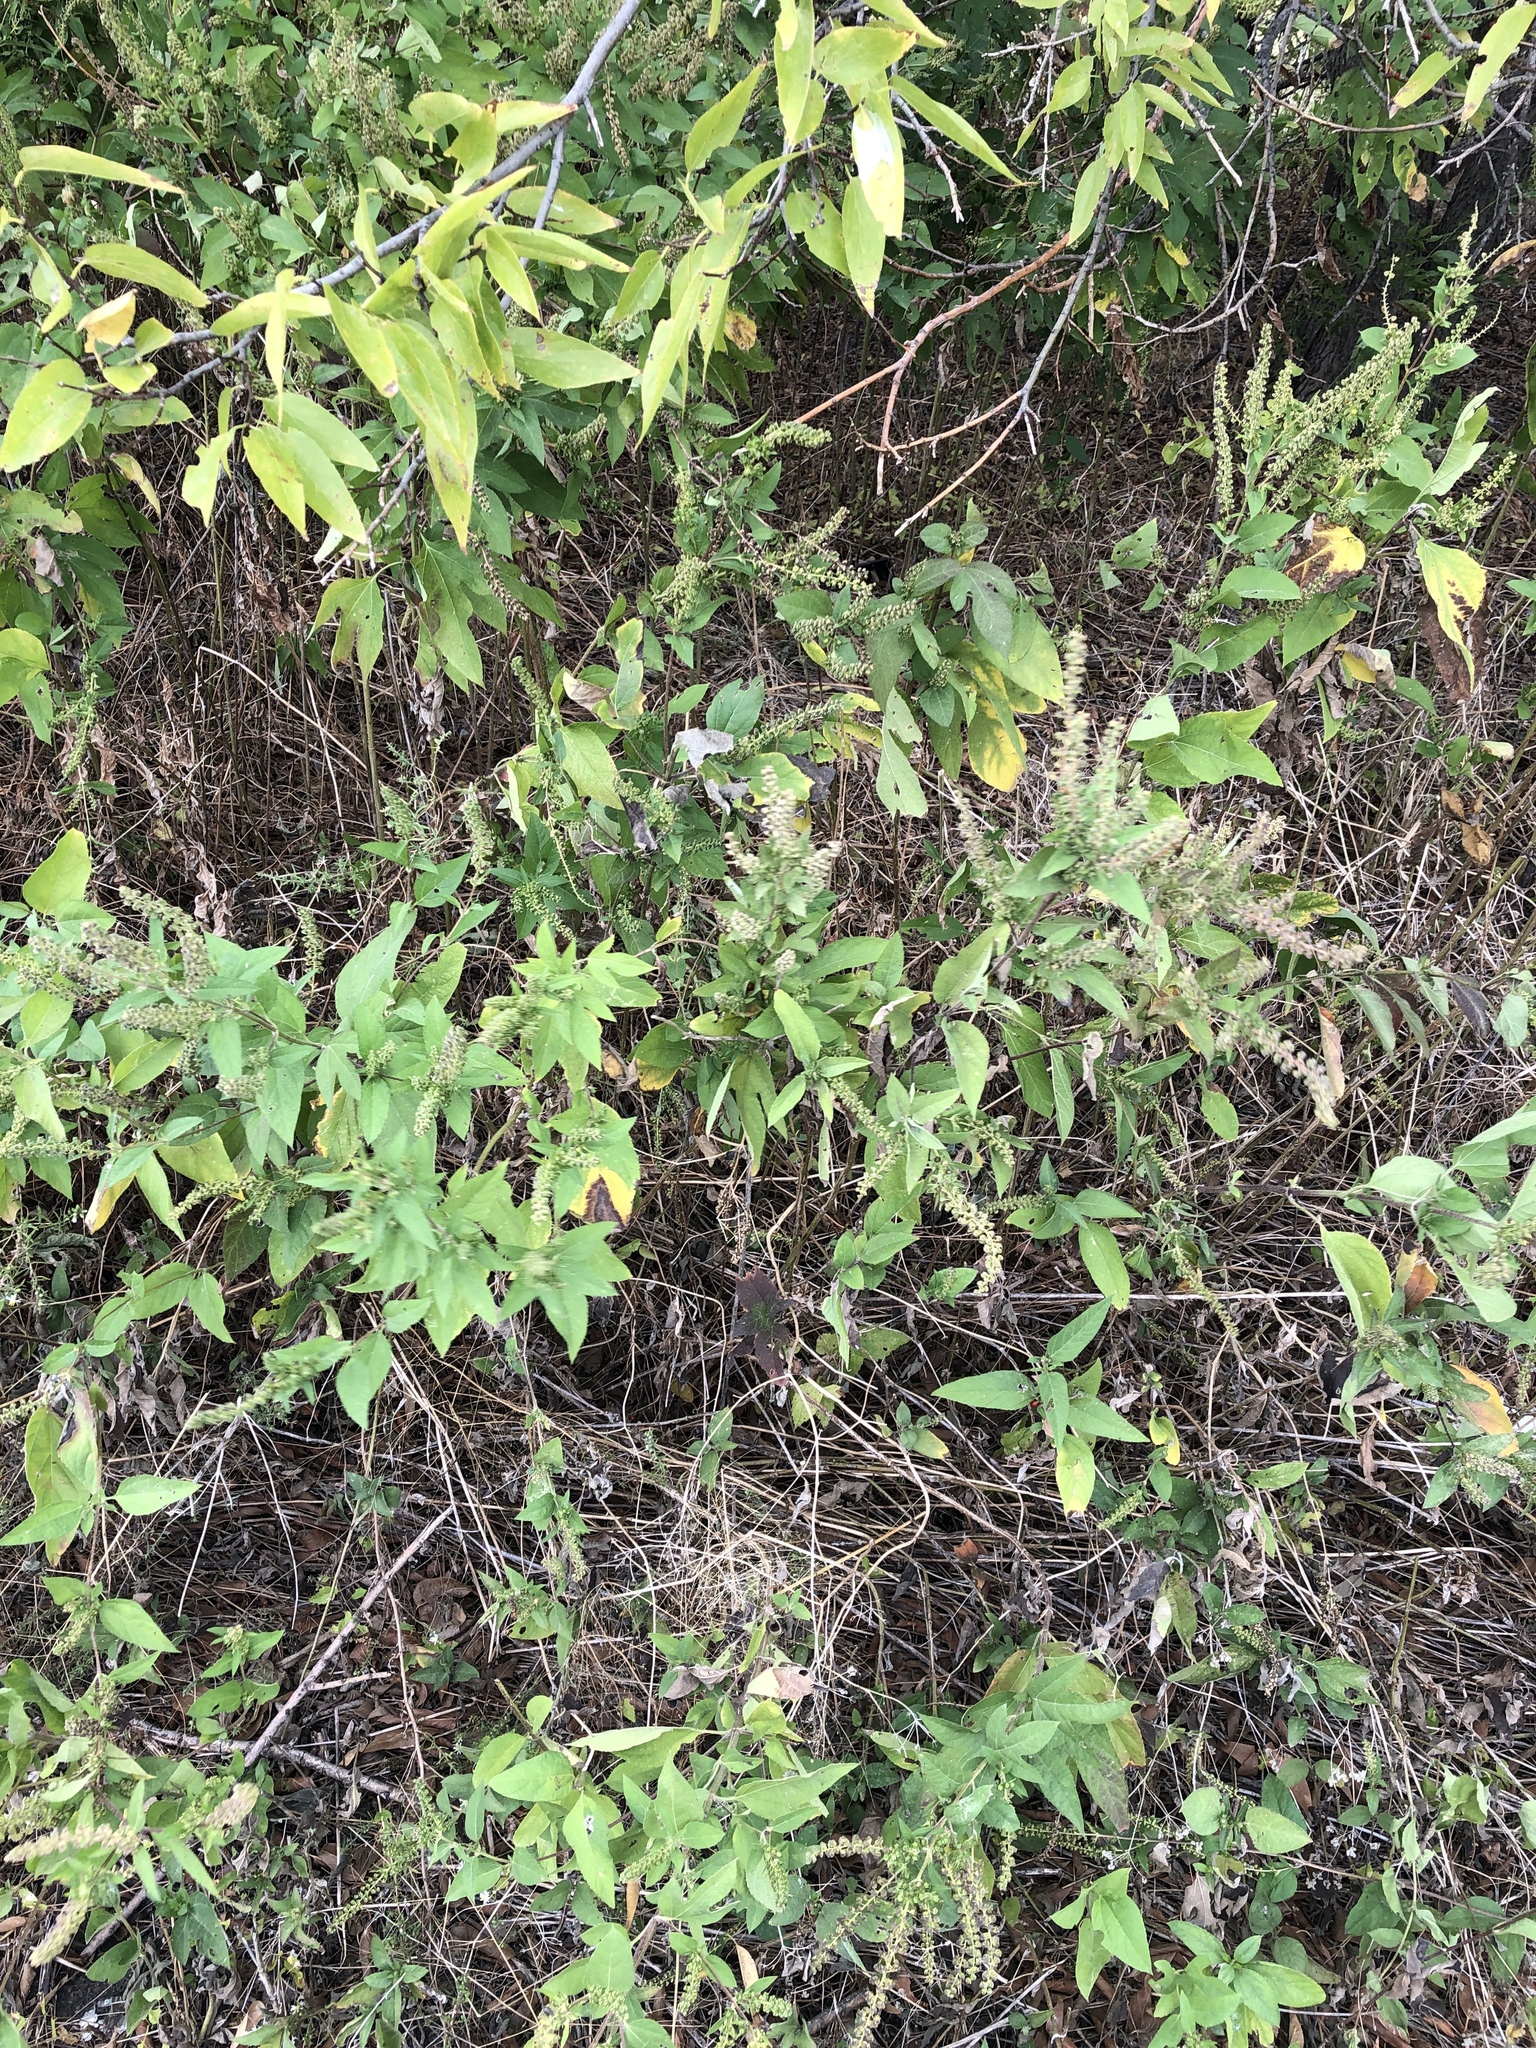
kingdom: Plantae
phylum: Tracheophyta
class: Magnoliopsida
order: Asterales
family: Asteraceae
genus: Ambrosia
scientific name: Ambrosia trifida
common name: Giant ragweed
